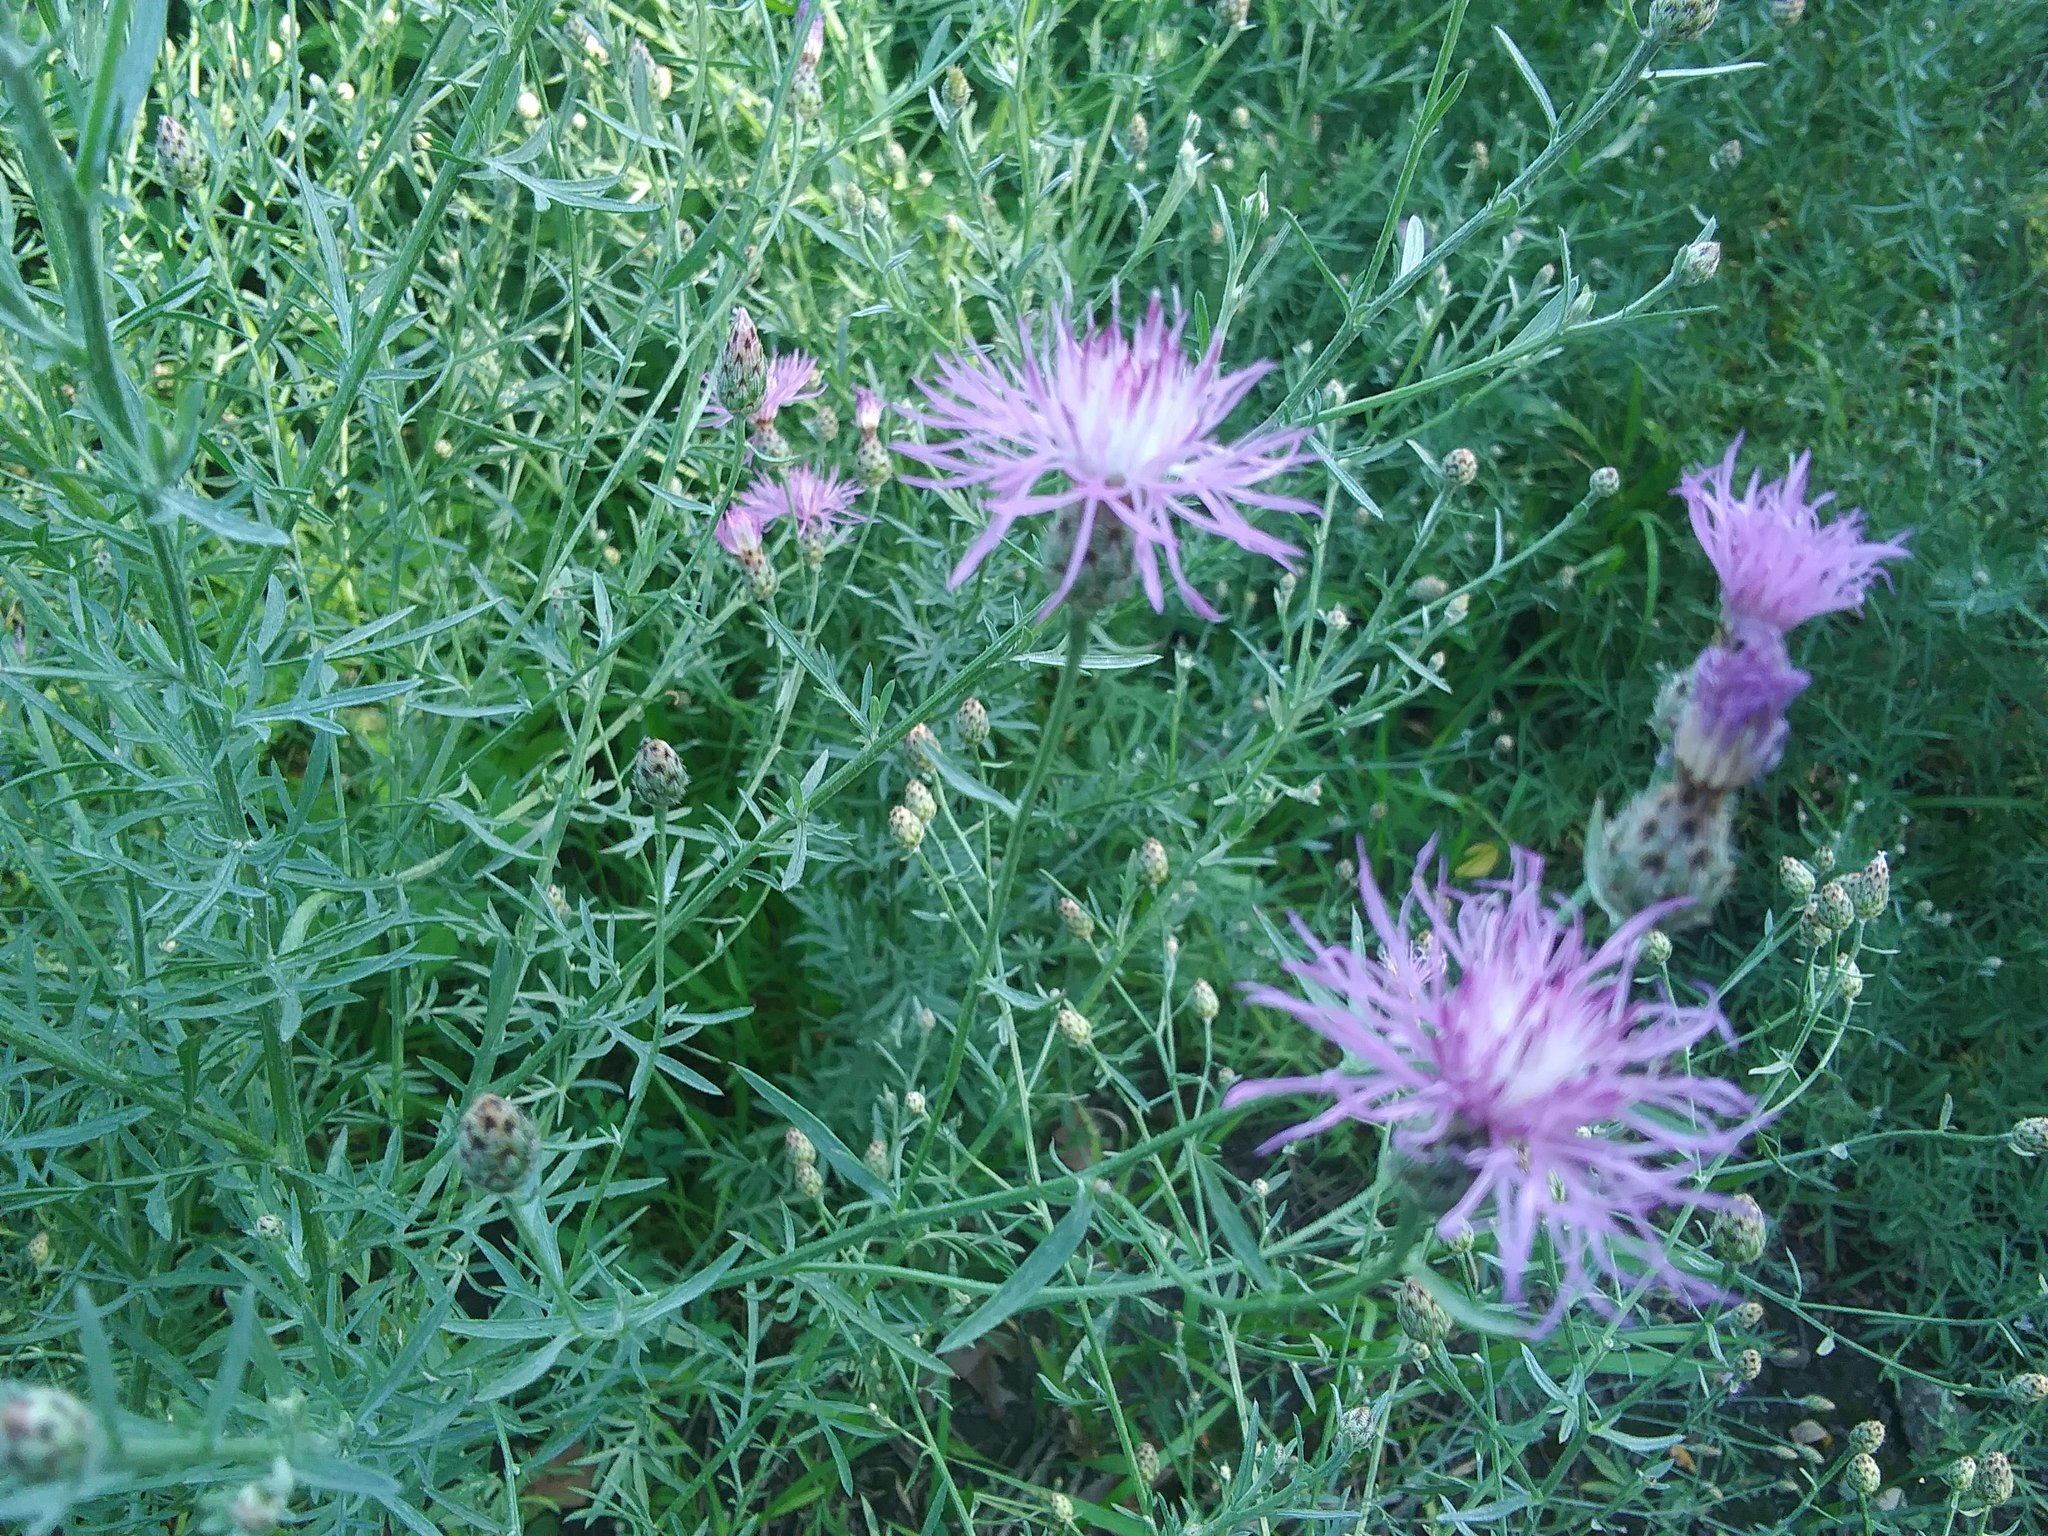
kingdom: Plantae
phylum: Tracheophyta
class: Magnoliopsida
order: Asterales
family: Asteraceae
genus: Centaurea
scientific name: Centaurea stoebe
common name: Spotted knapweed
